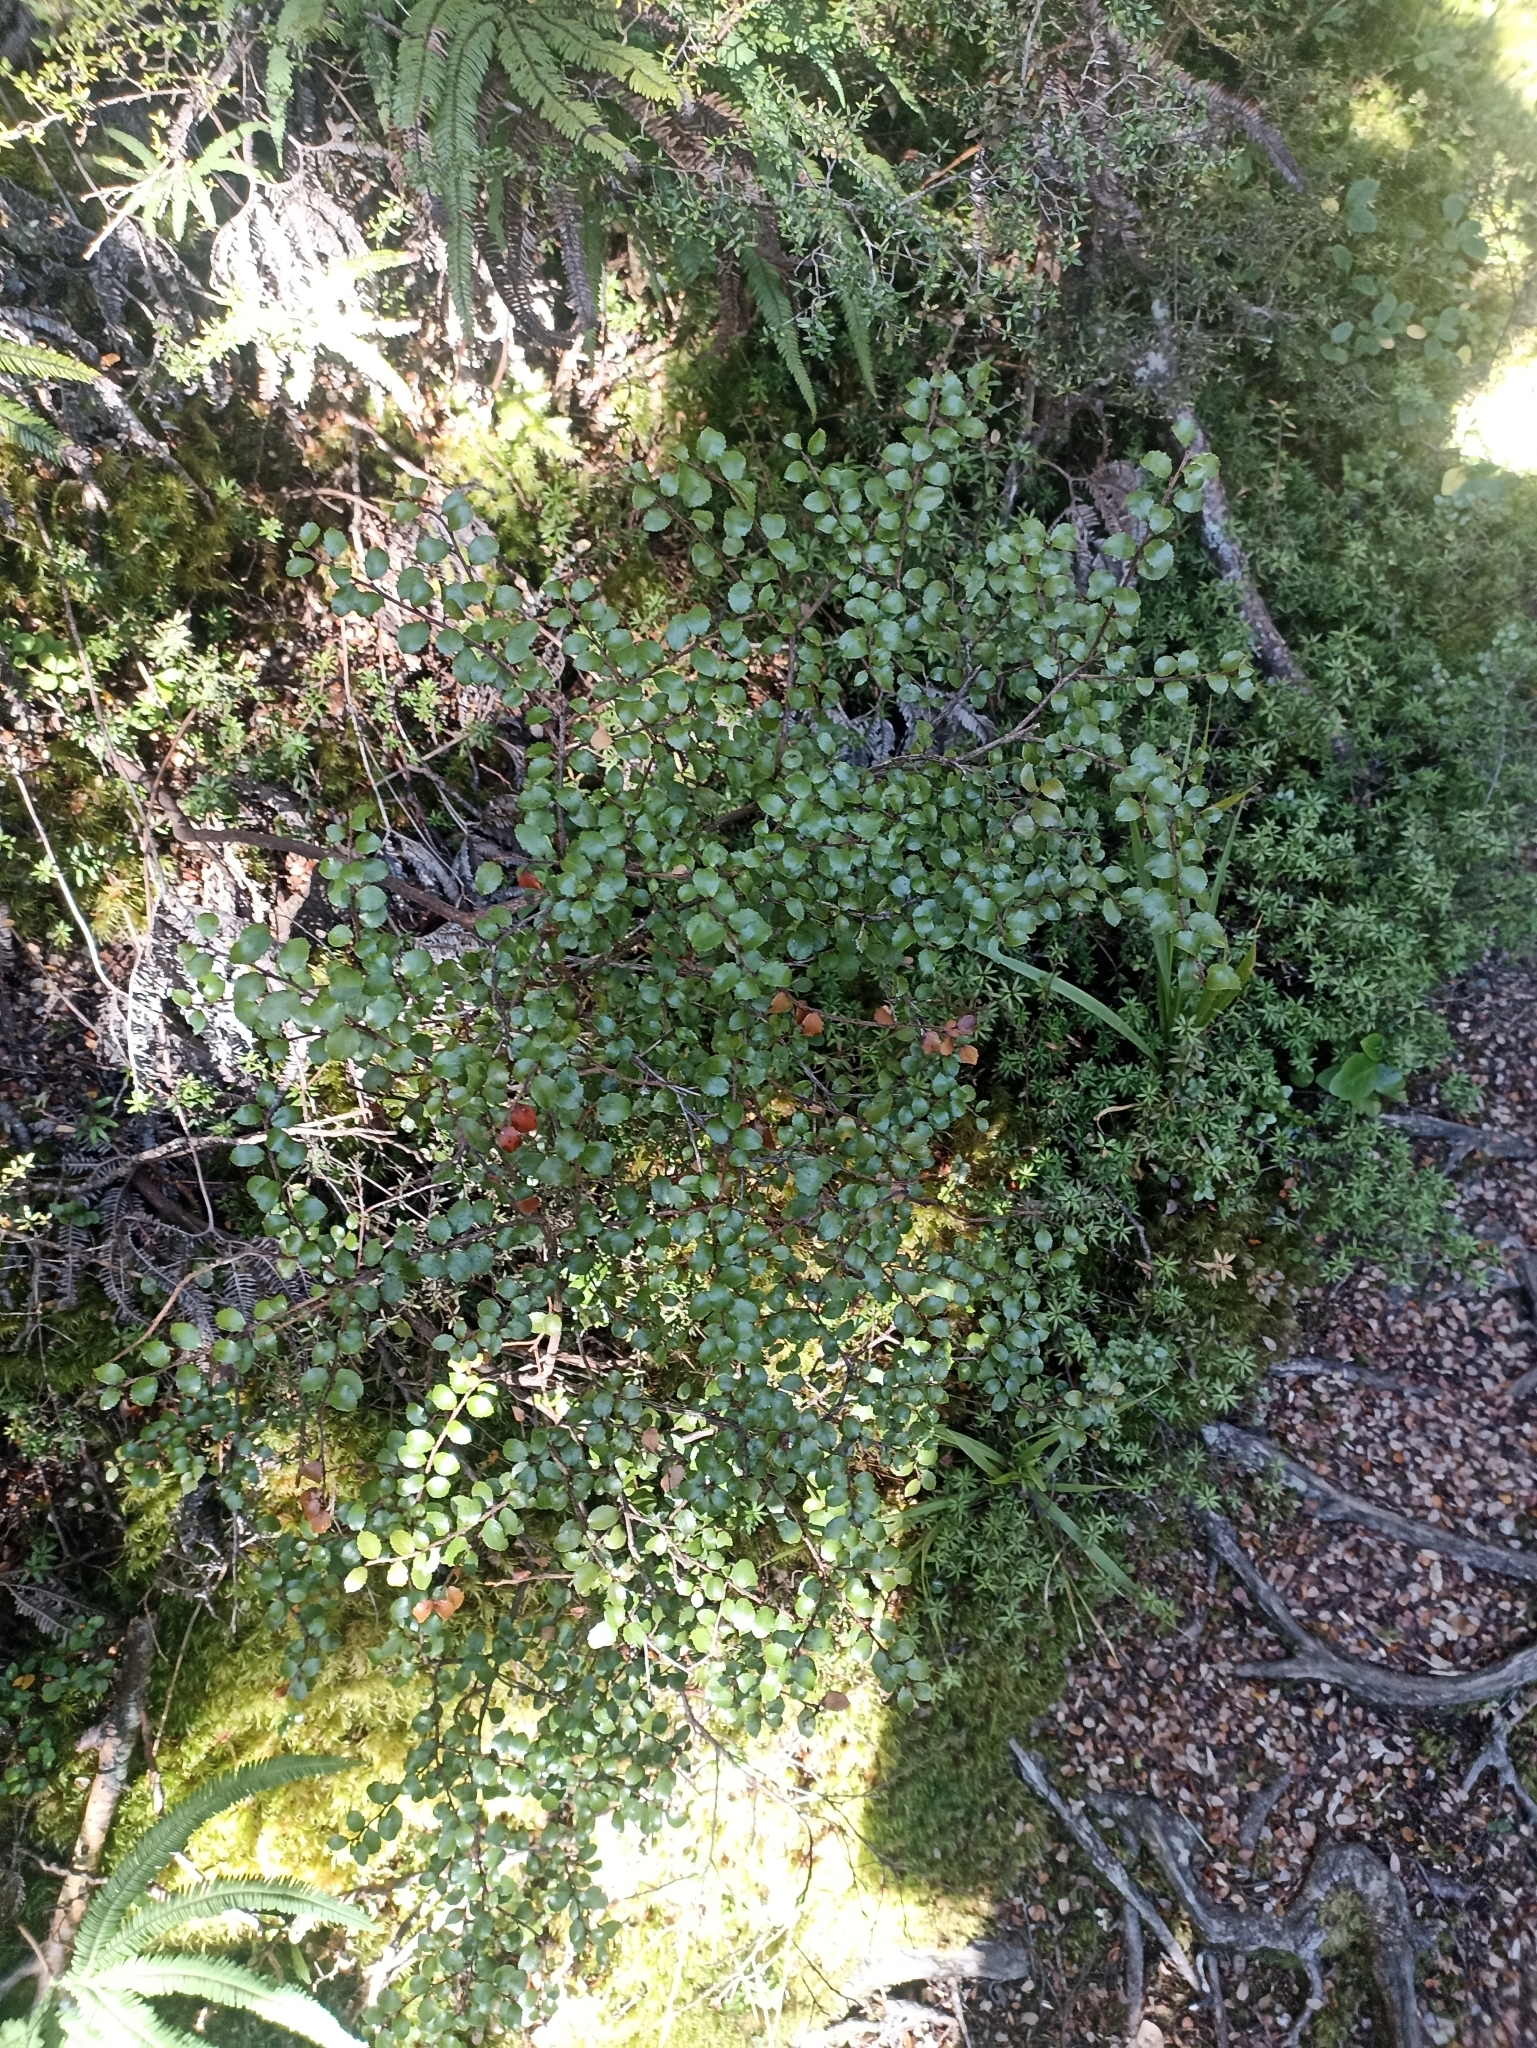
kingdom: Plantae
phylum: Tracheophyta
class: Magnoliopsida
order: Ericales
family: Ericaceae
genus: Gaultheria
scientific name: Gaultheria antipoda
